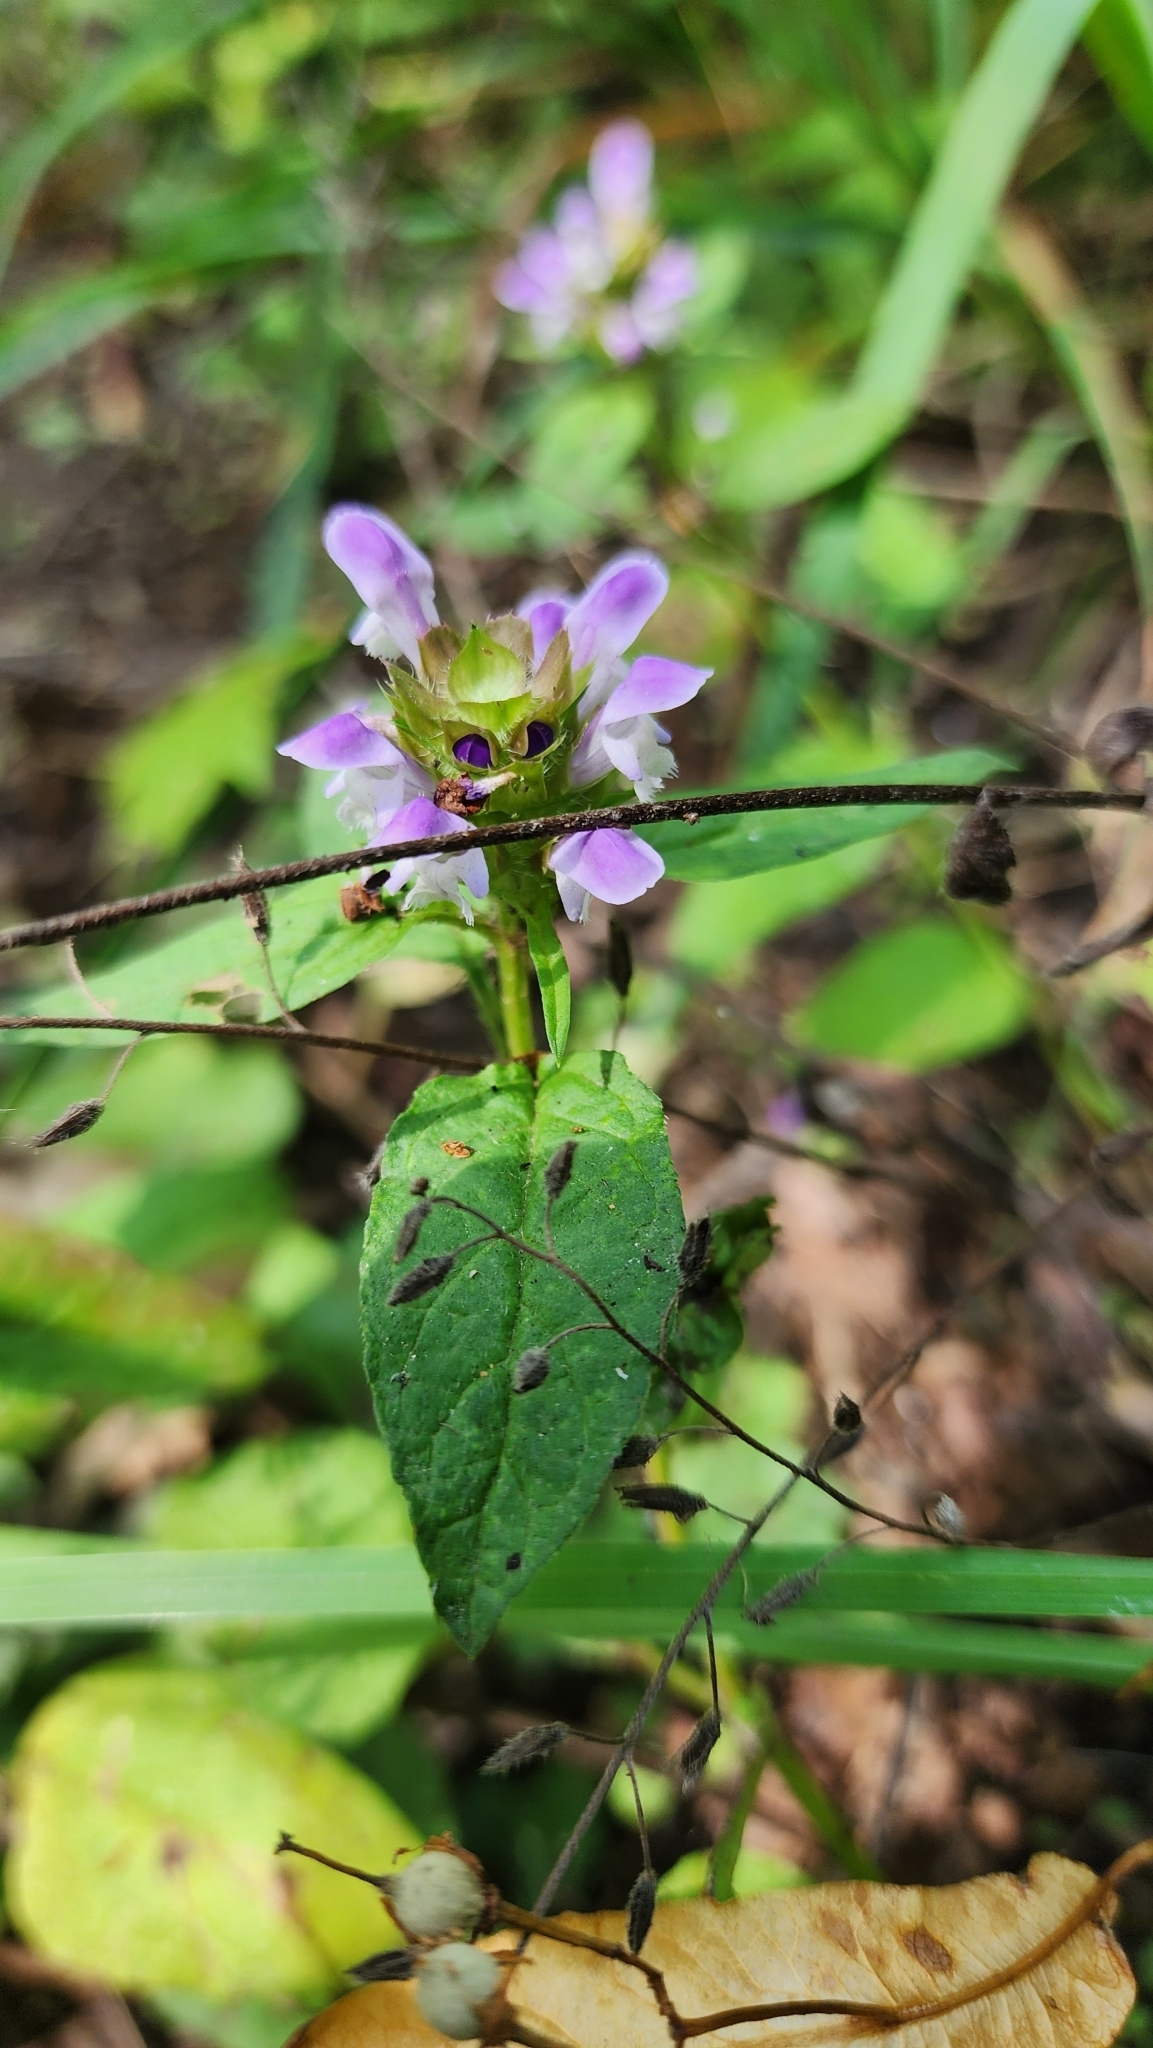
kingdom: Plantae
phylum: Tracheophyta
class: Magnoliopsida
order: Lamiales
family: Lamiaceae
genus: Prunella
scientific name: Prunella vulgaris
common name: Heal-all
